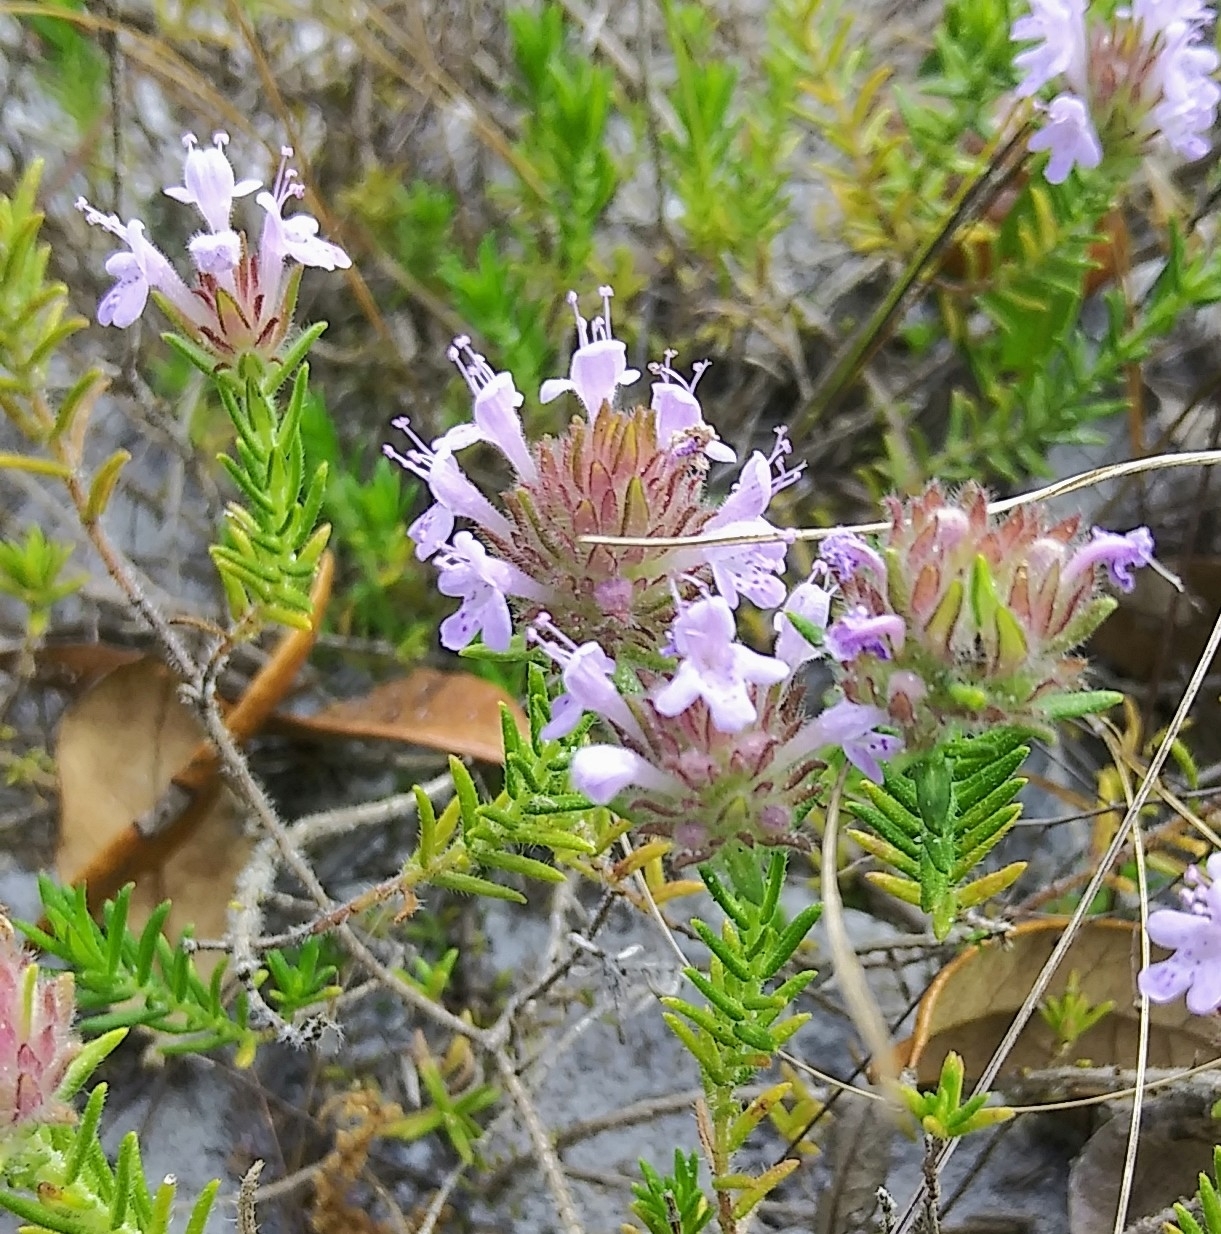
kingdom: Plantae
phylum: Tracheophyta
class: Magnoliopsida
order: Lamiales
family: Lamiaceae
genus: Piloblephis
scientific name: Piloblephis rigida
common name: Wild pennyroyal
